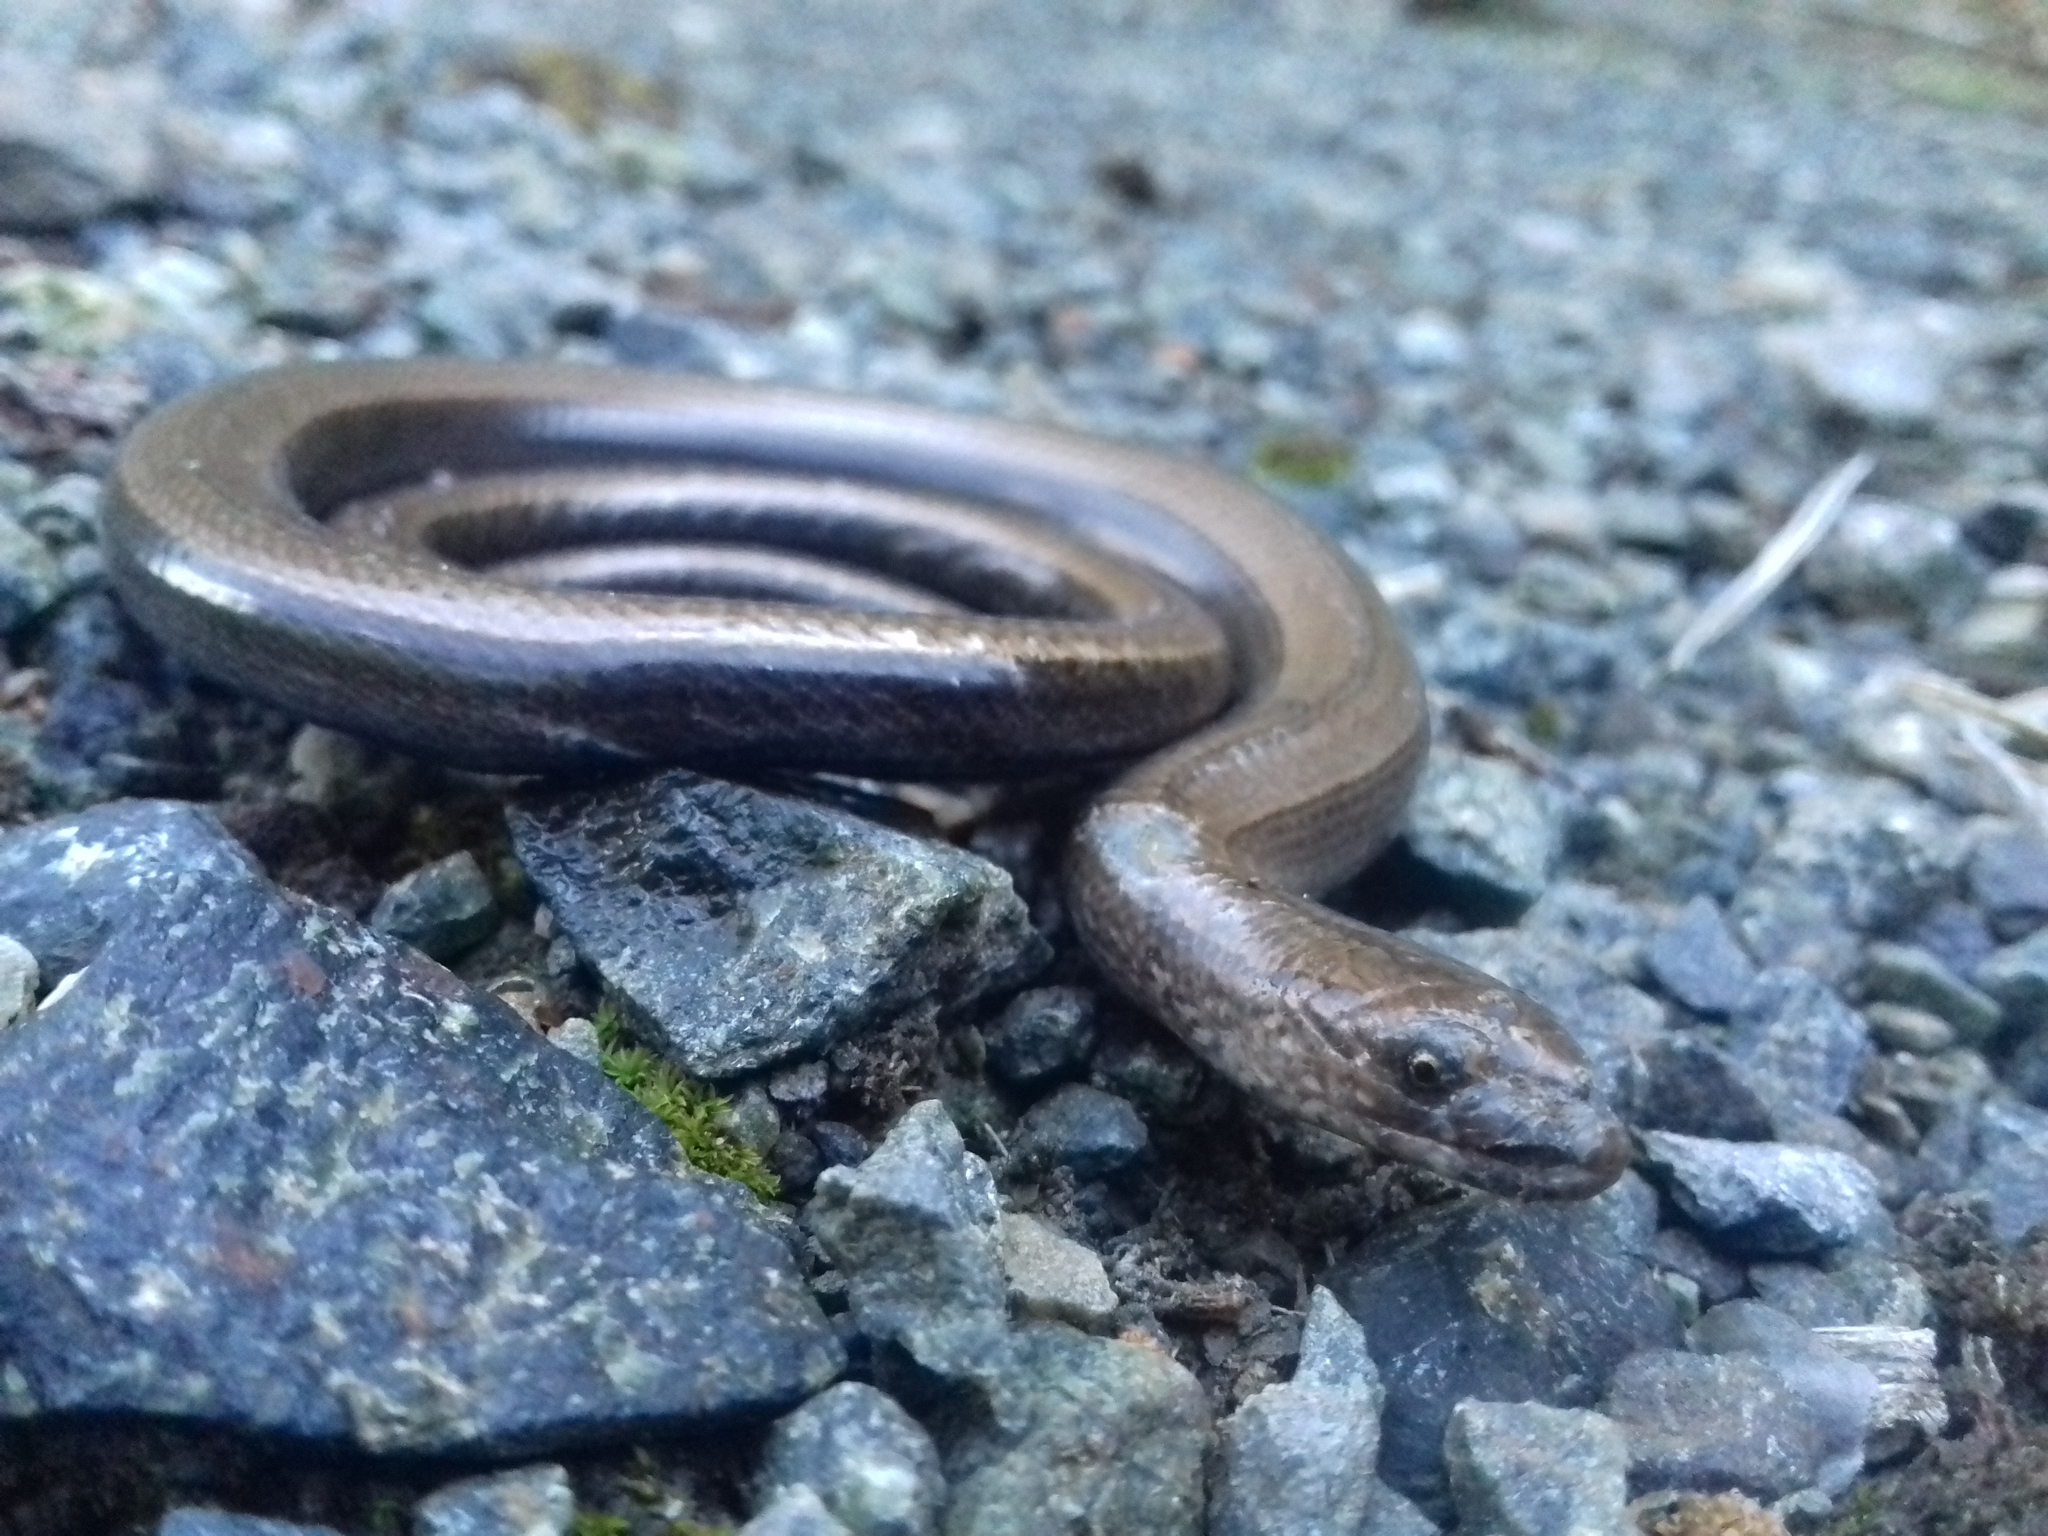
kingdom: Animalia
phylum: Chordata
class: Squamata
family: Anguidae
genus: Anguis
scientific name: Anguis colchica
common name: Slow worm
